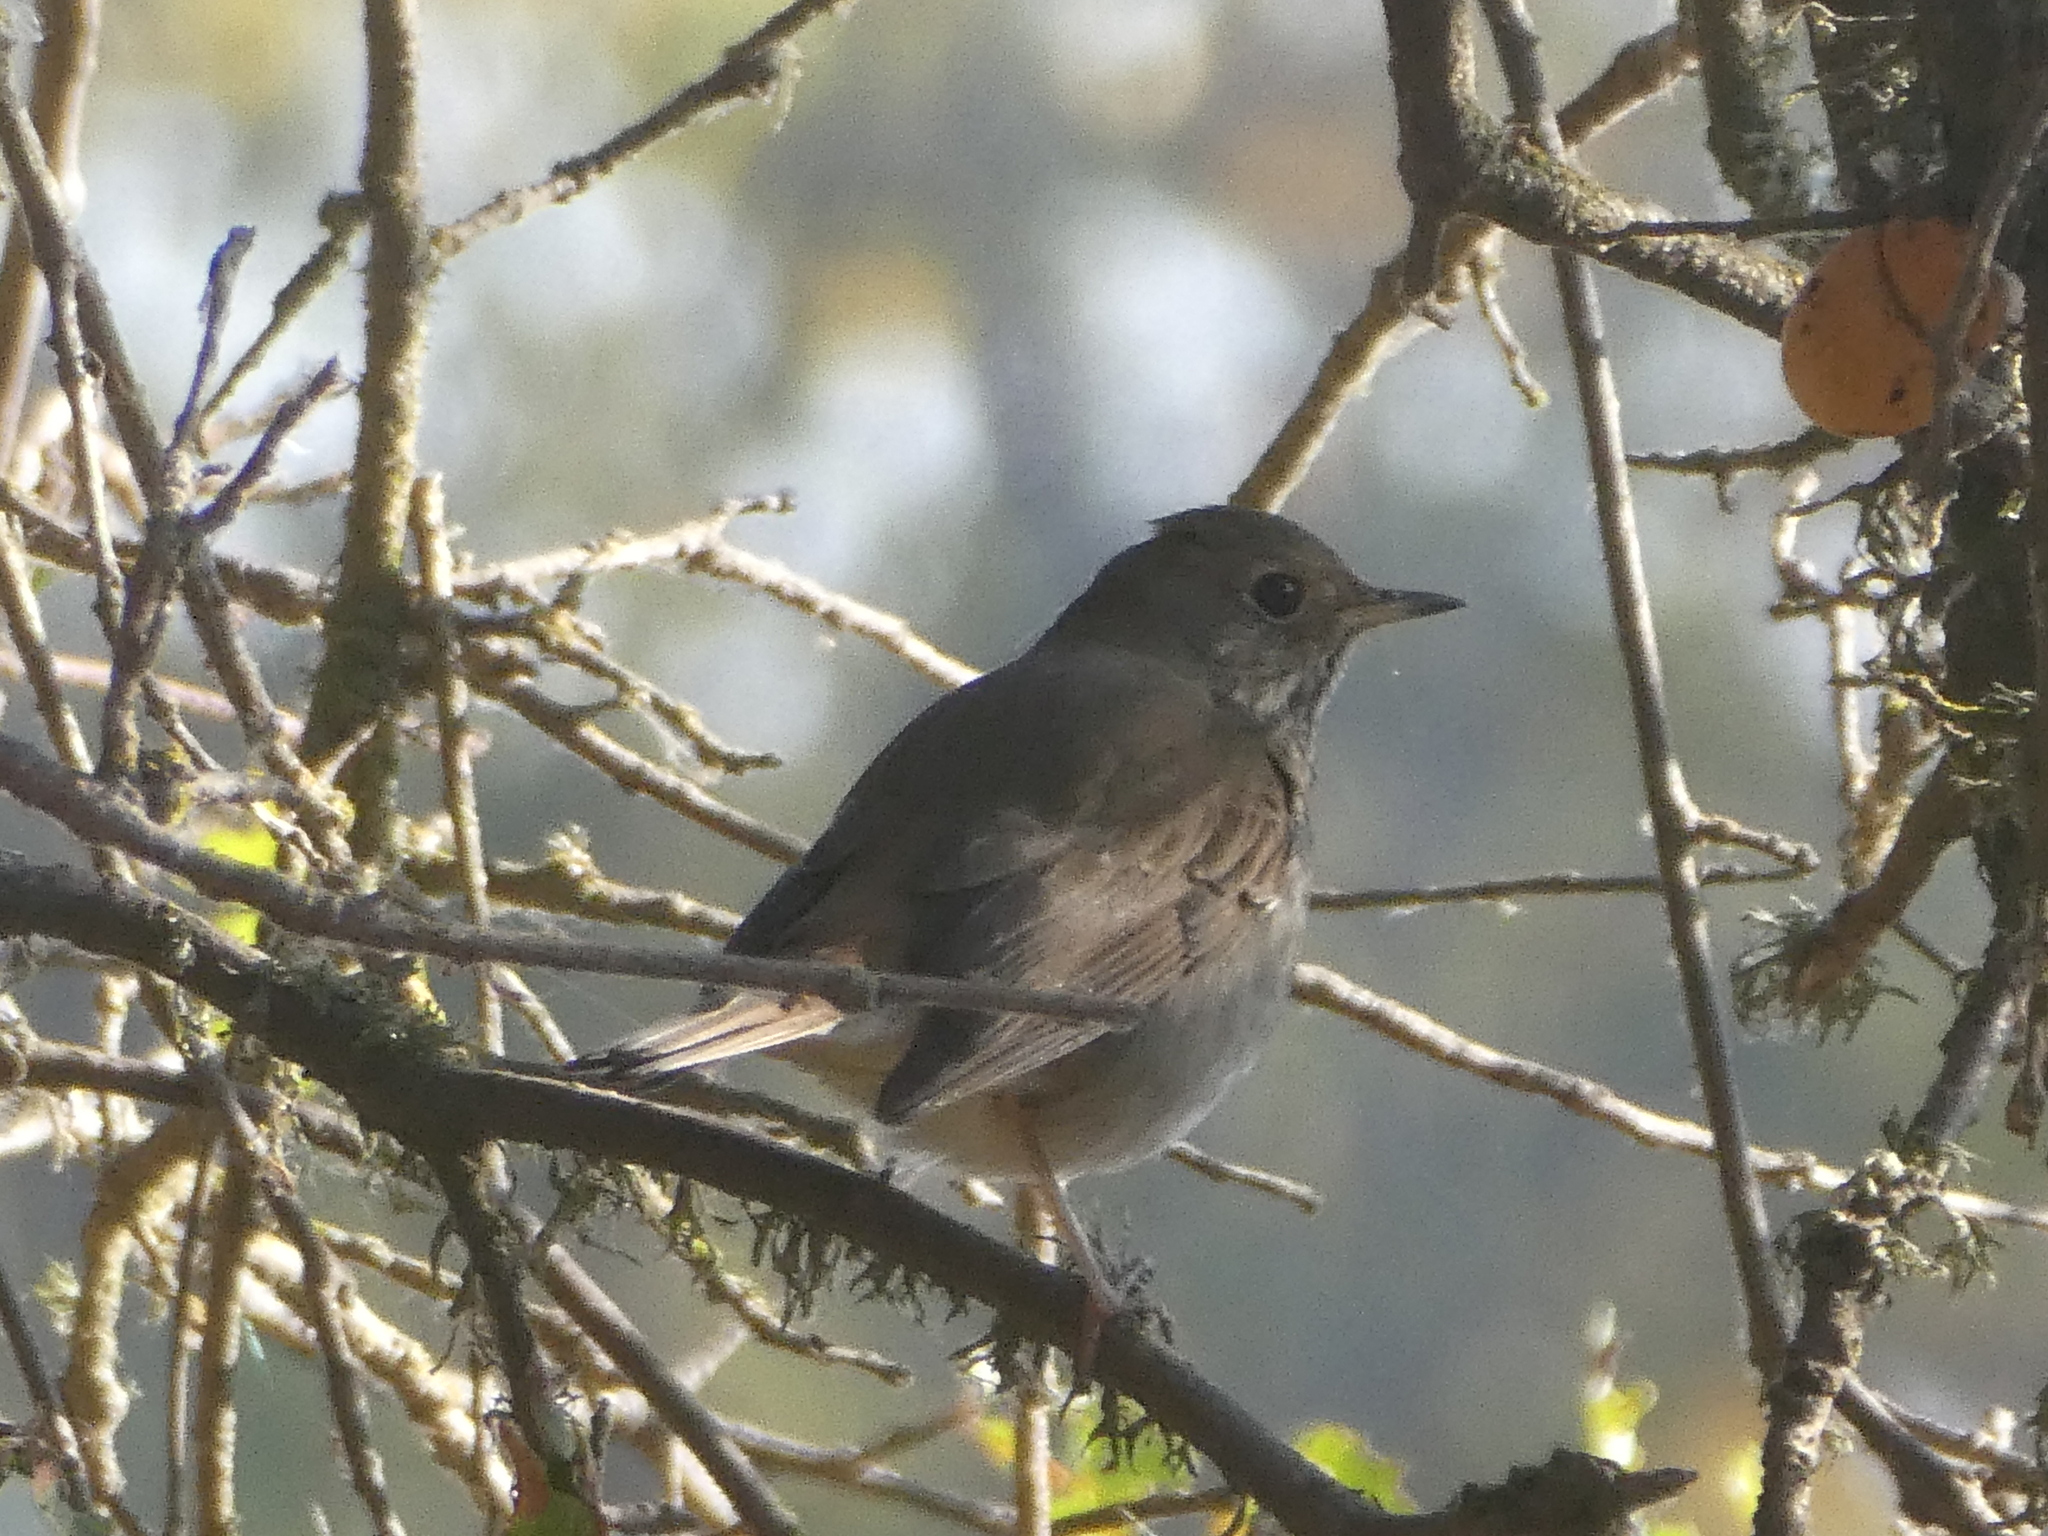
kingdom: Animalia
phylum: Chordata
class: Aves
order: Passeriformes
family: Turdidae
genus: Catharus
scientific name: Catharus guttatus
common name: Hermit thrush
